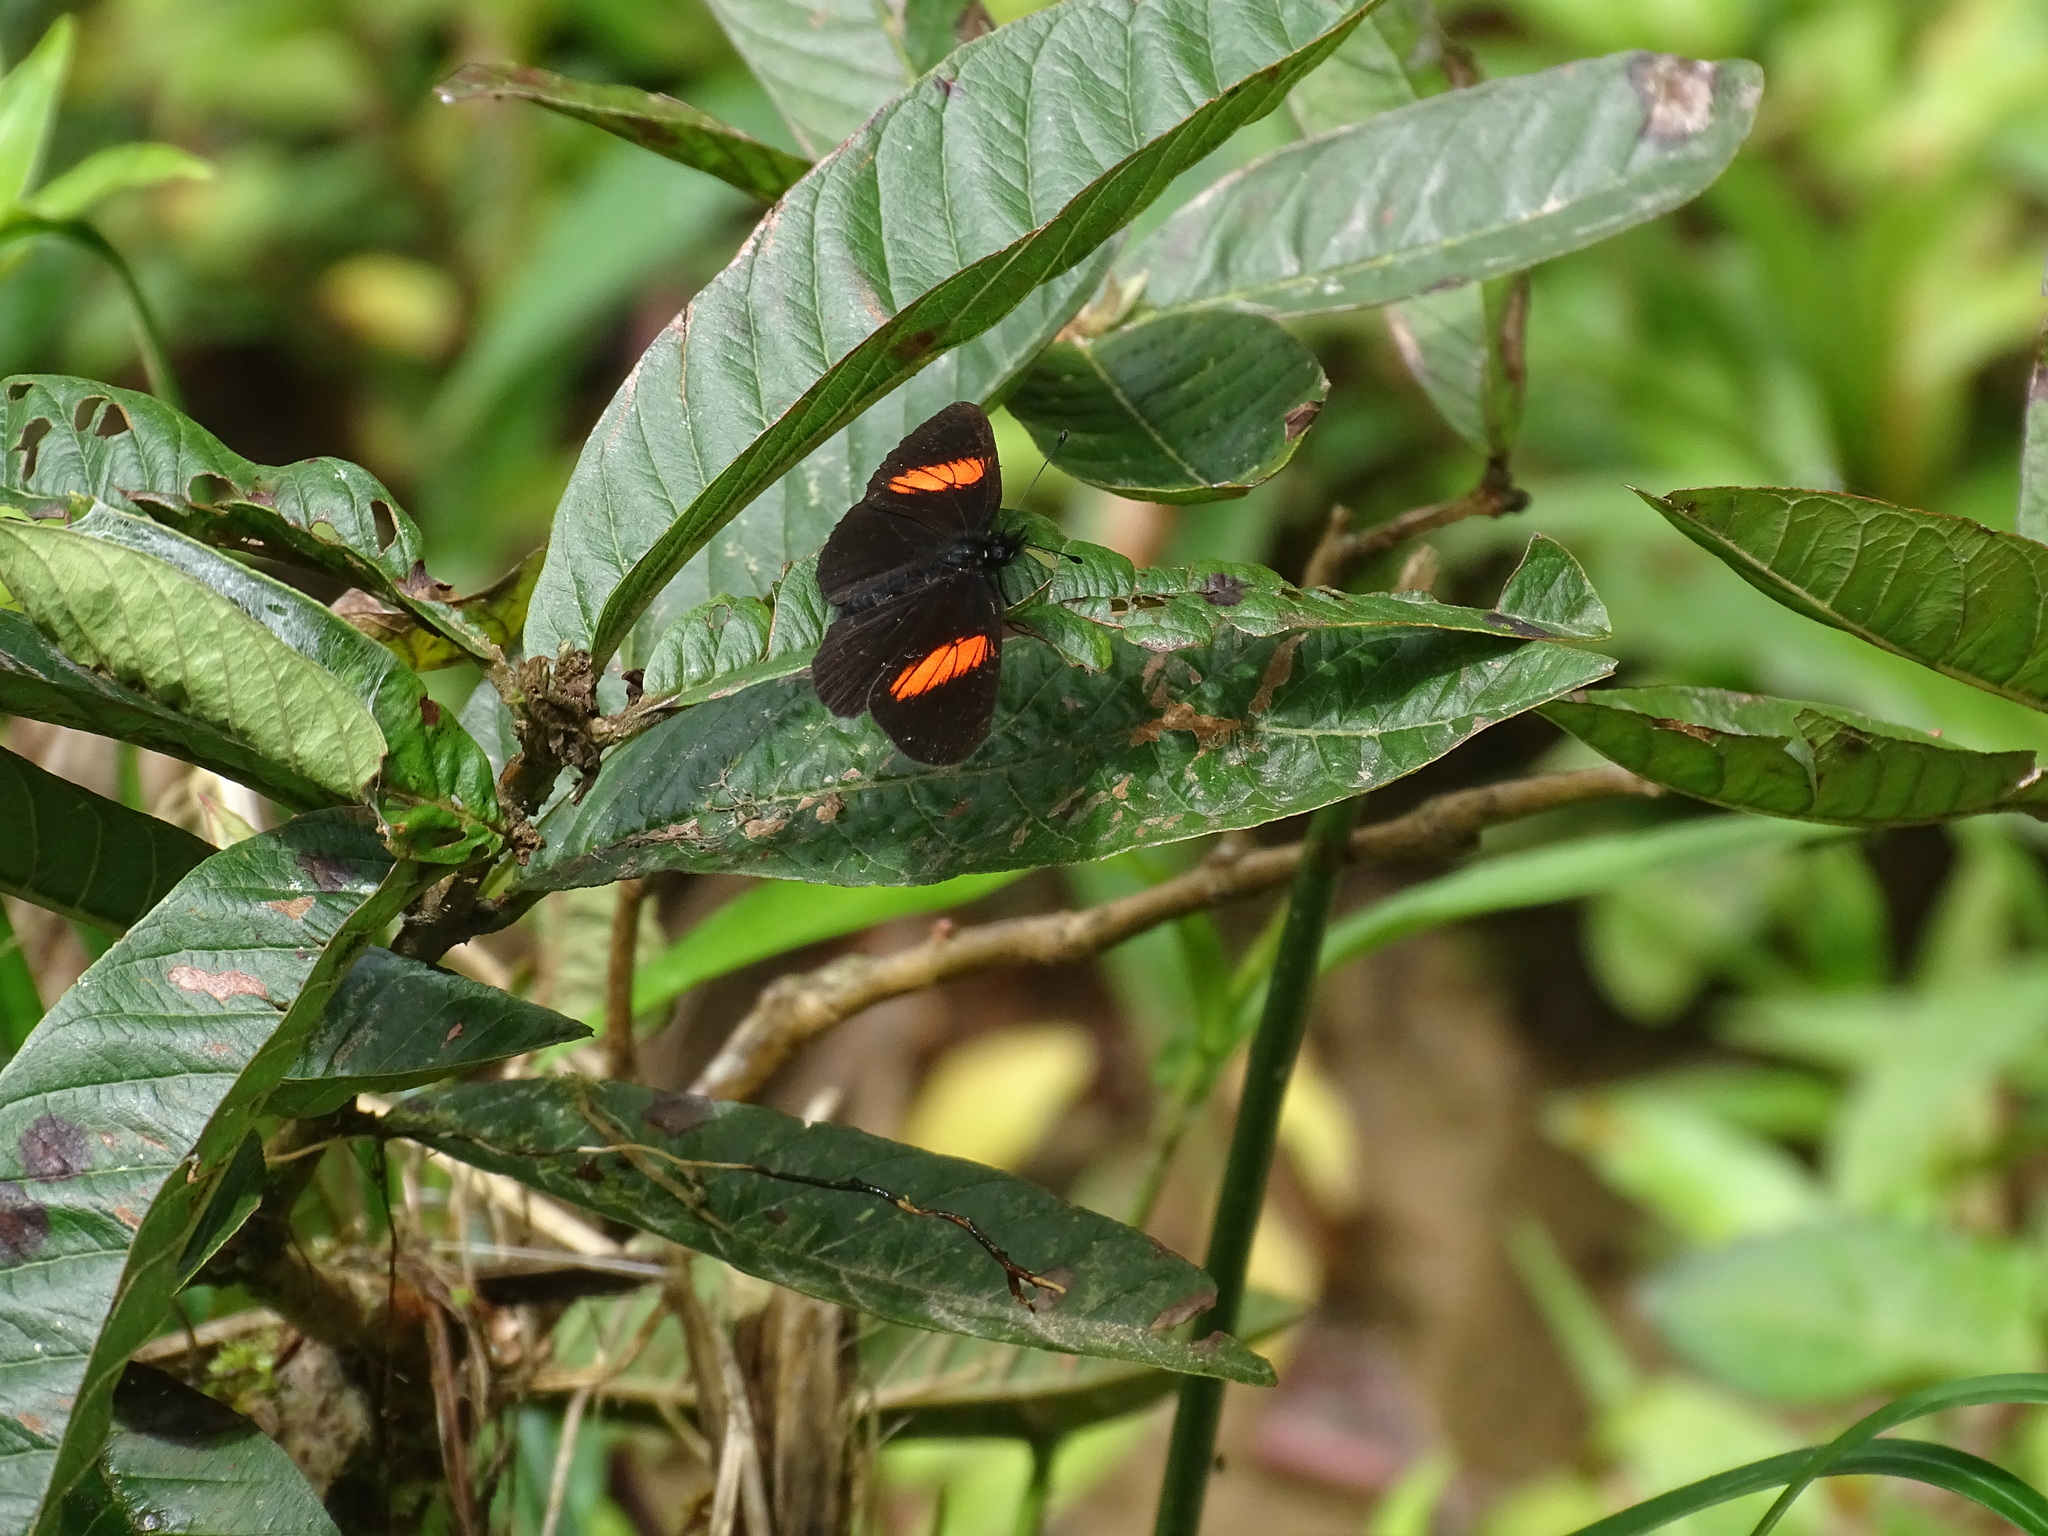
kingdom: Animalia
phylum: Arthropoda
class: Insecta
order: Lepidoptera
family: Nymphalidae
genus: Castilia
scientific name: Castilia castilla
